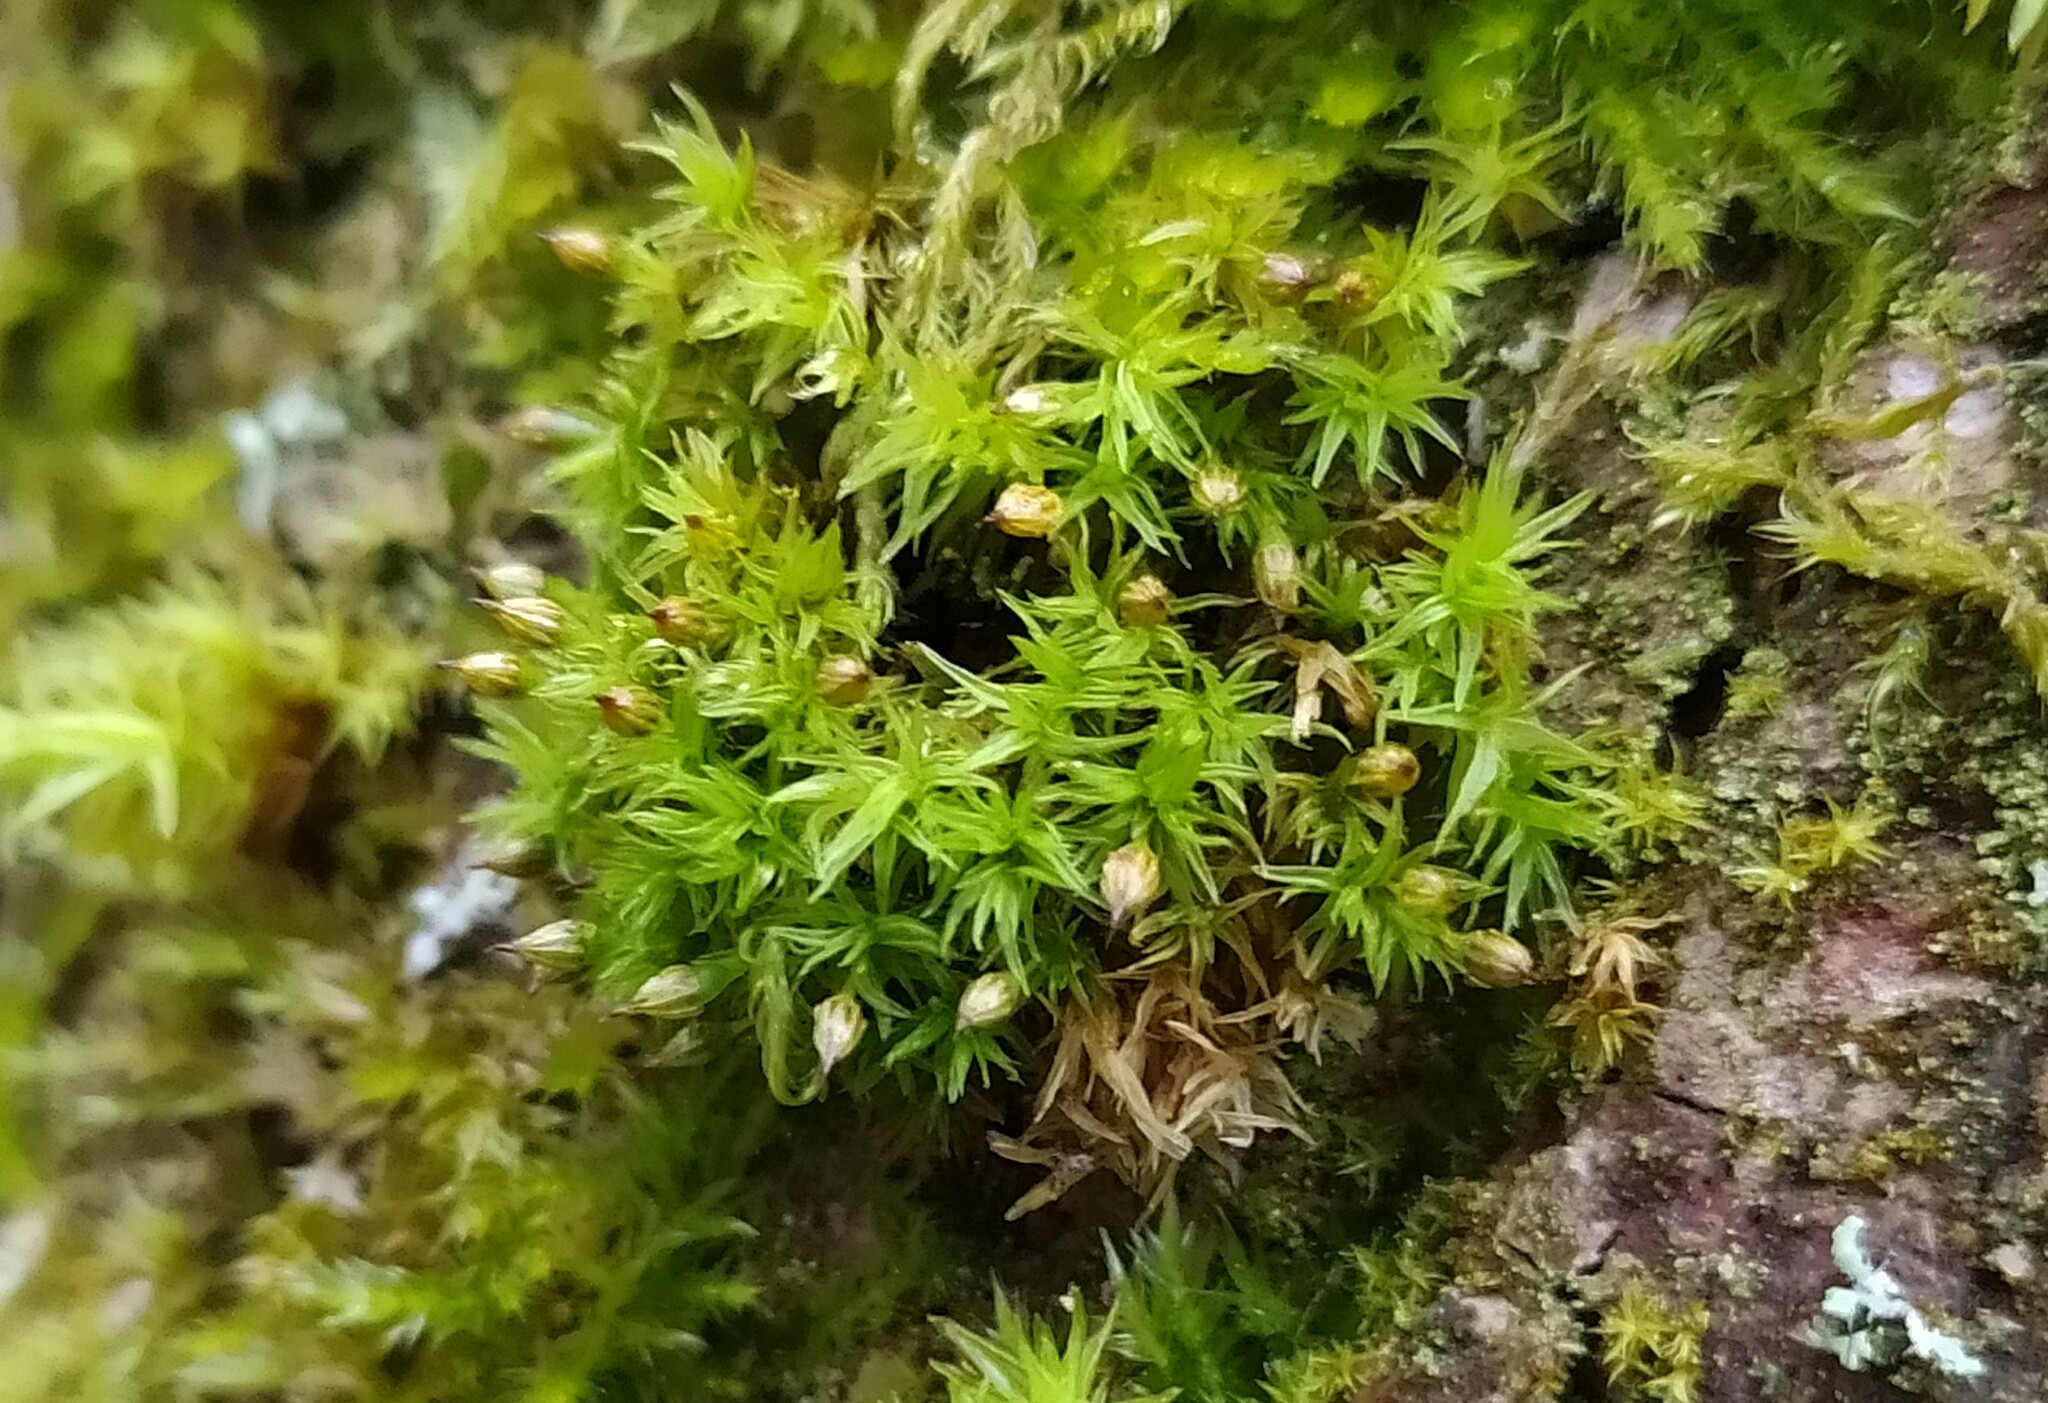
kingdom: Plantae
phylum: Bryophyta
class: Bryopsida
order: Orthotrichales
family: Orthotrichaceae
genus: Orthotrichum
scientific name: Orthotrichum pulchellum
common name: Elegant bristle-moss
